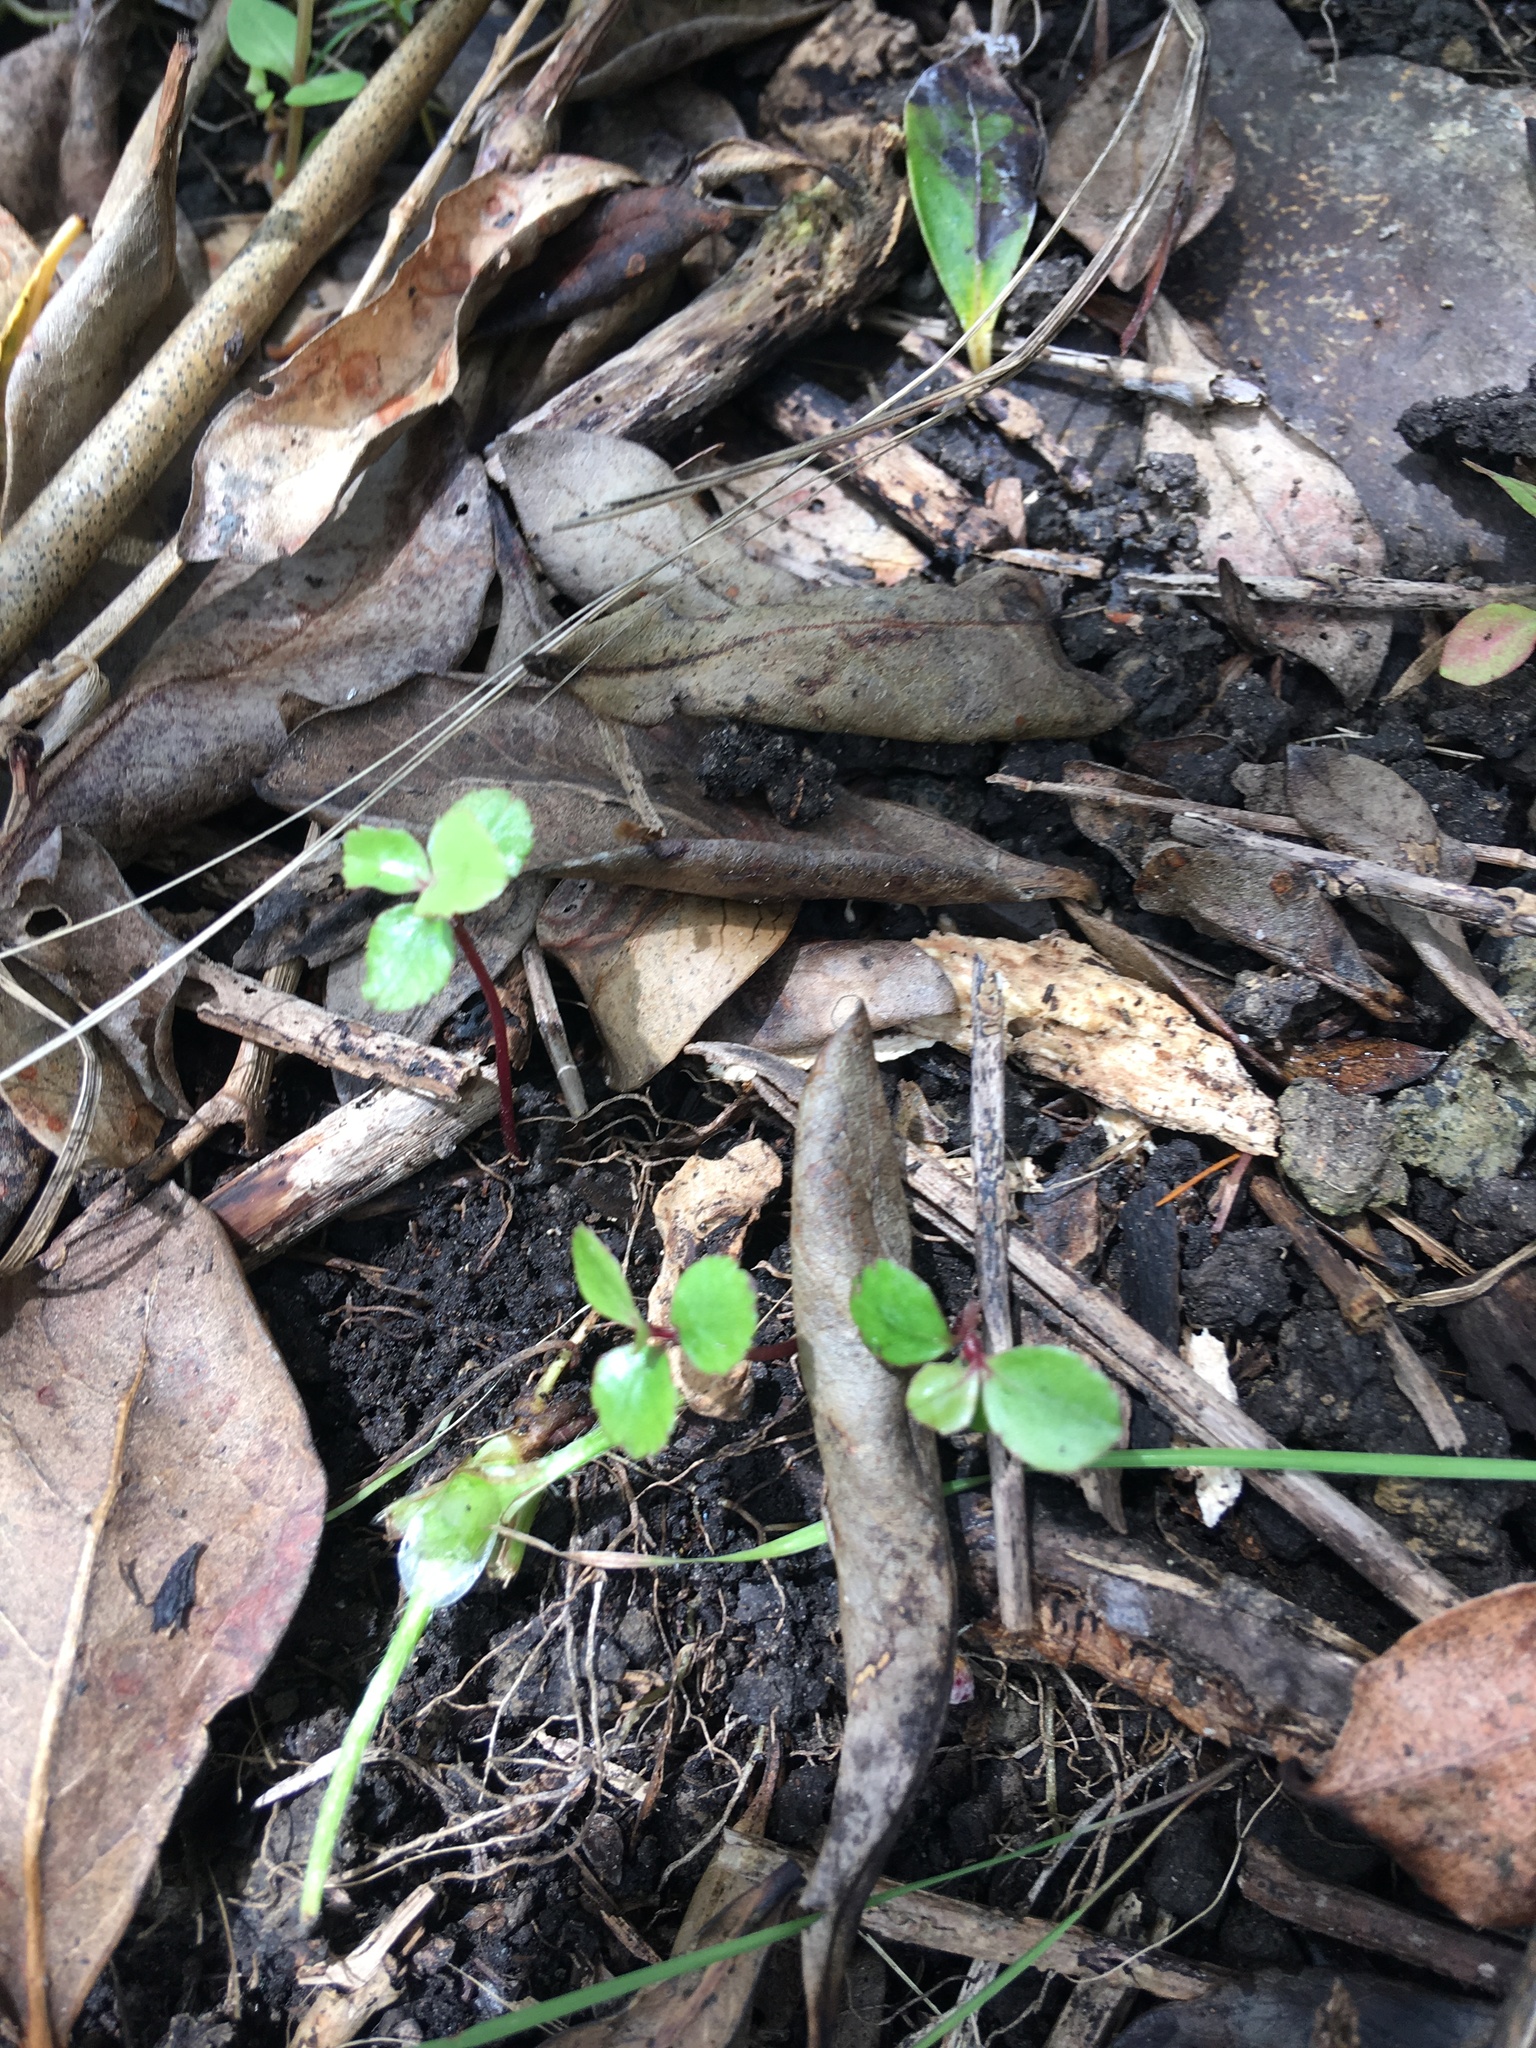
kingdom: Plantae
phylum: Tracheophyta
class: Magnoliopsida
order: Ericales
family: Primulaceae
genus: Myrsine
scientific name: Myrsine australis
